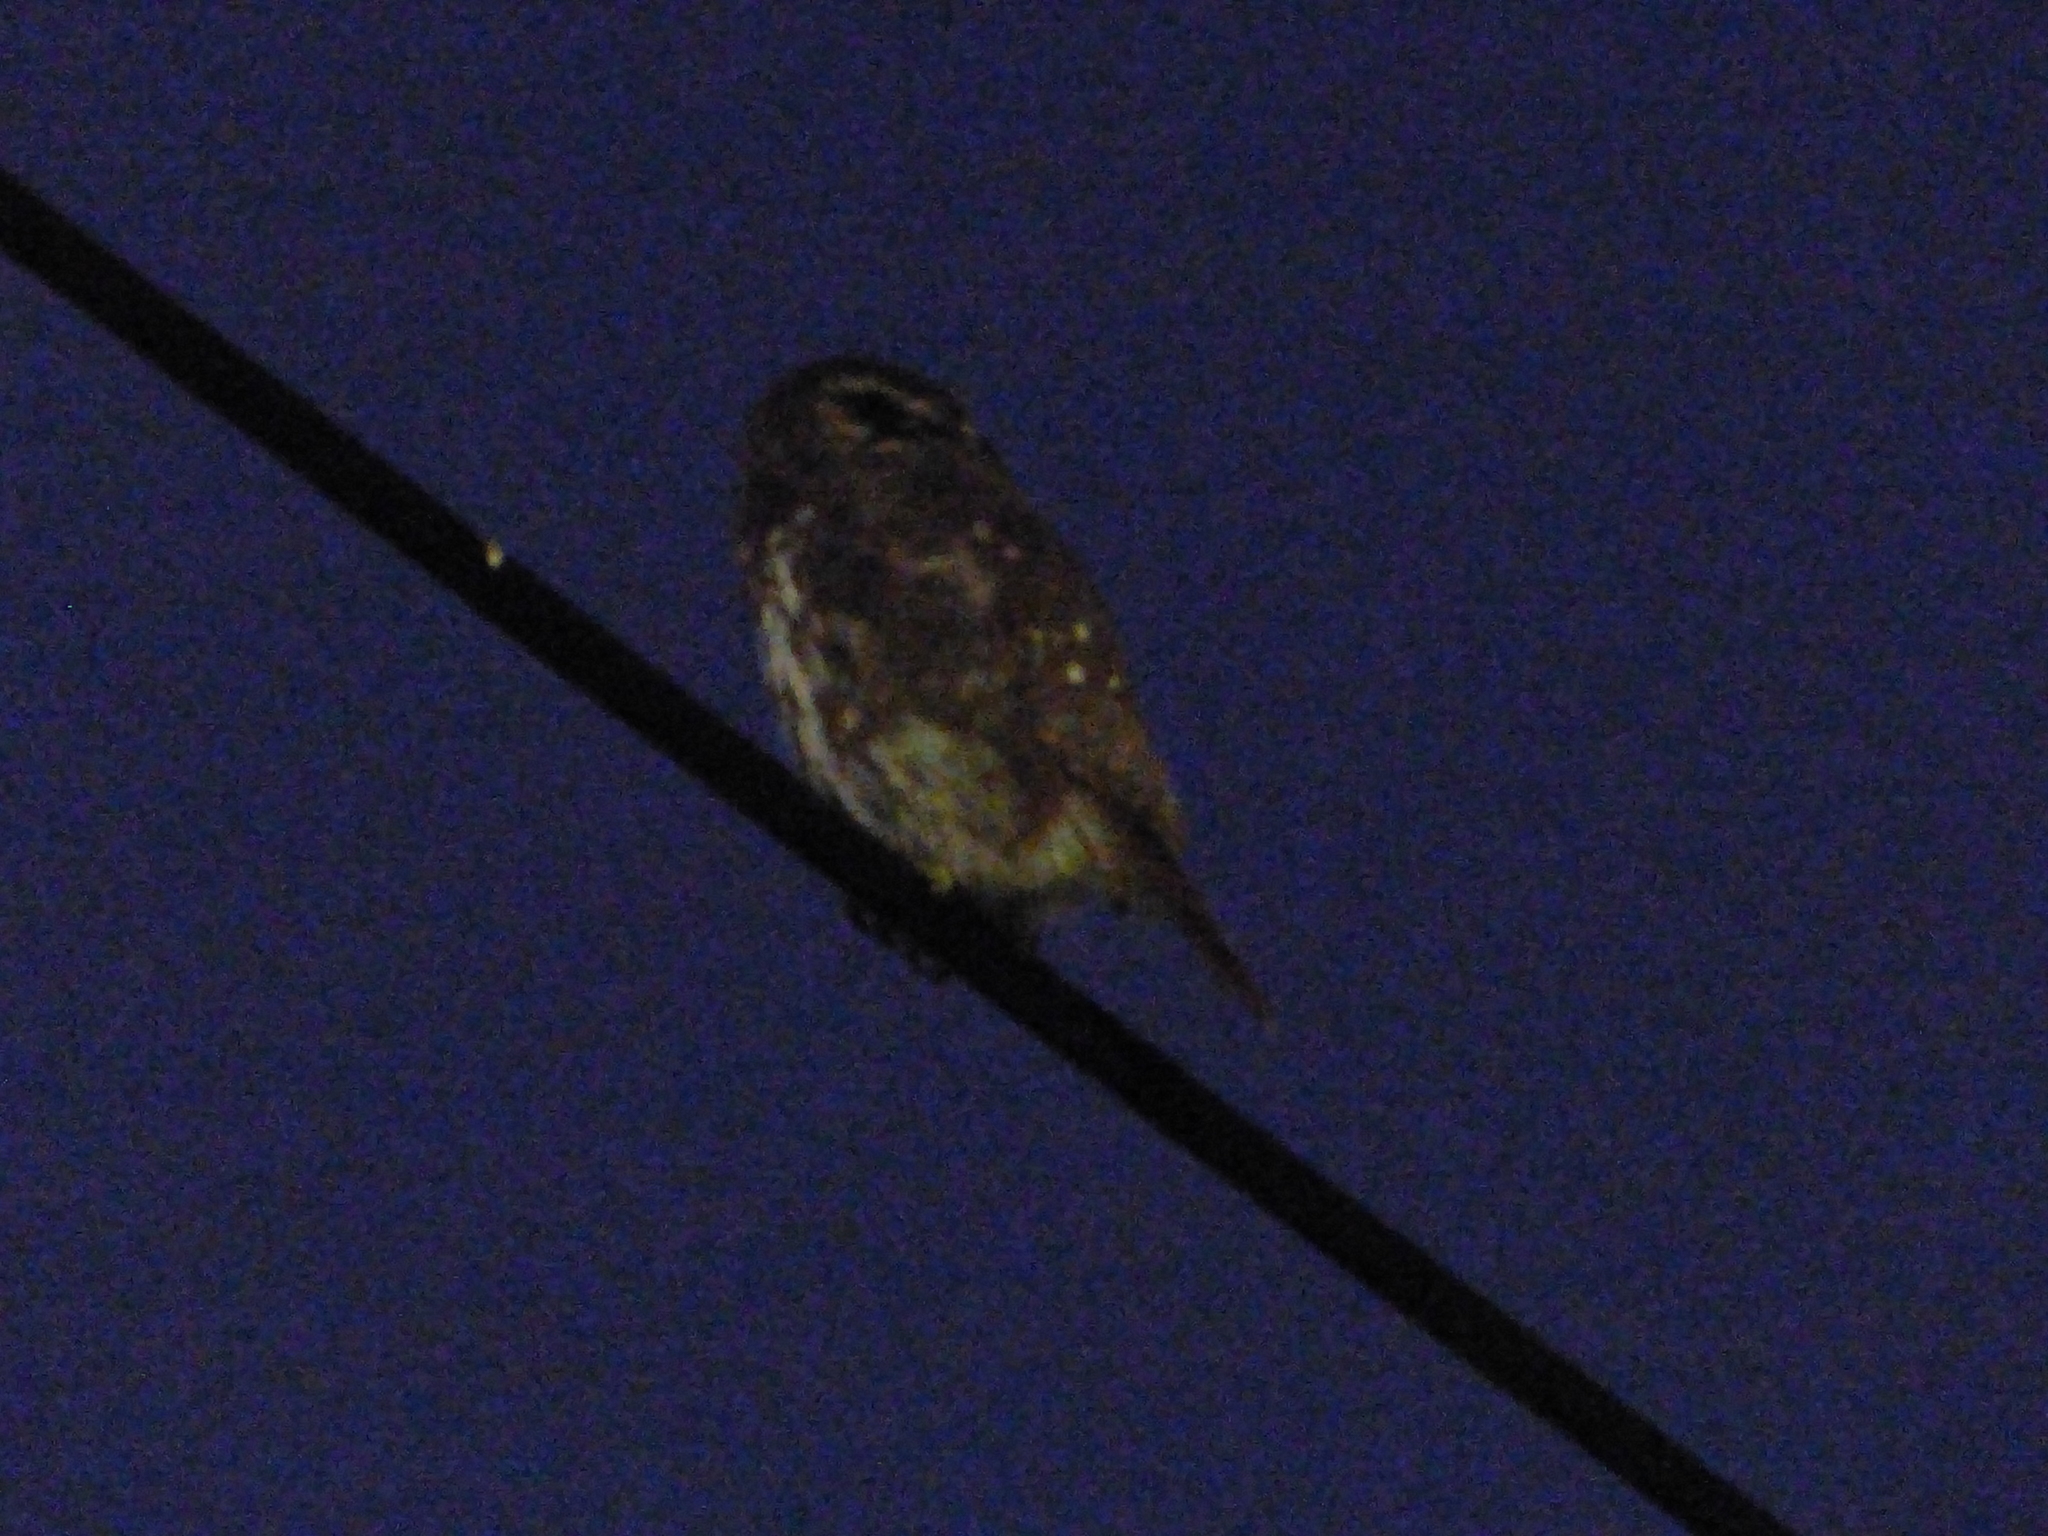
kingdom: Animalia
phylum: Chordata
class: Aves
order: Strigiformes
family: Strigidae
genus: Glaucidium
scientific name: Glaucidium brasilianum
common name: Ferruginous pygmy-owl
